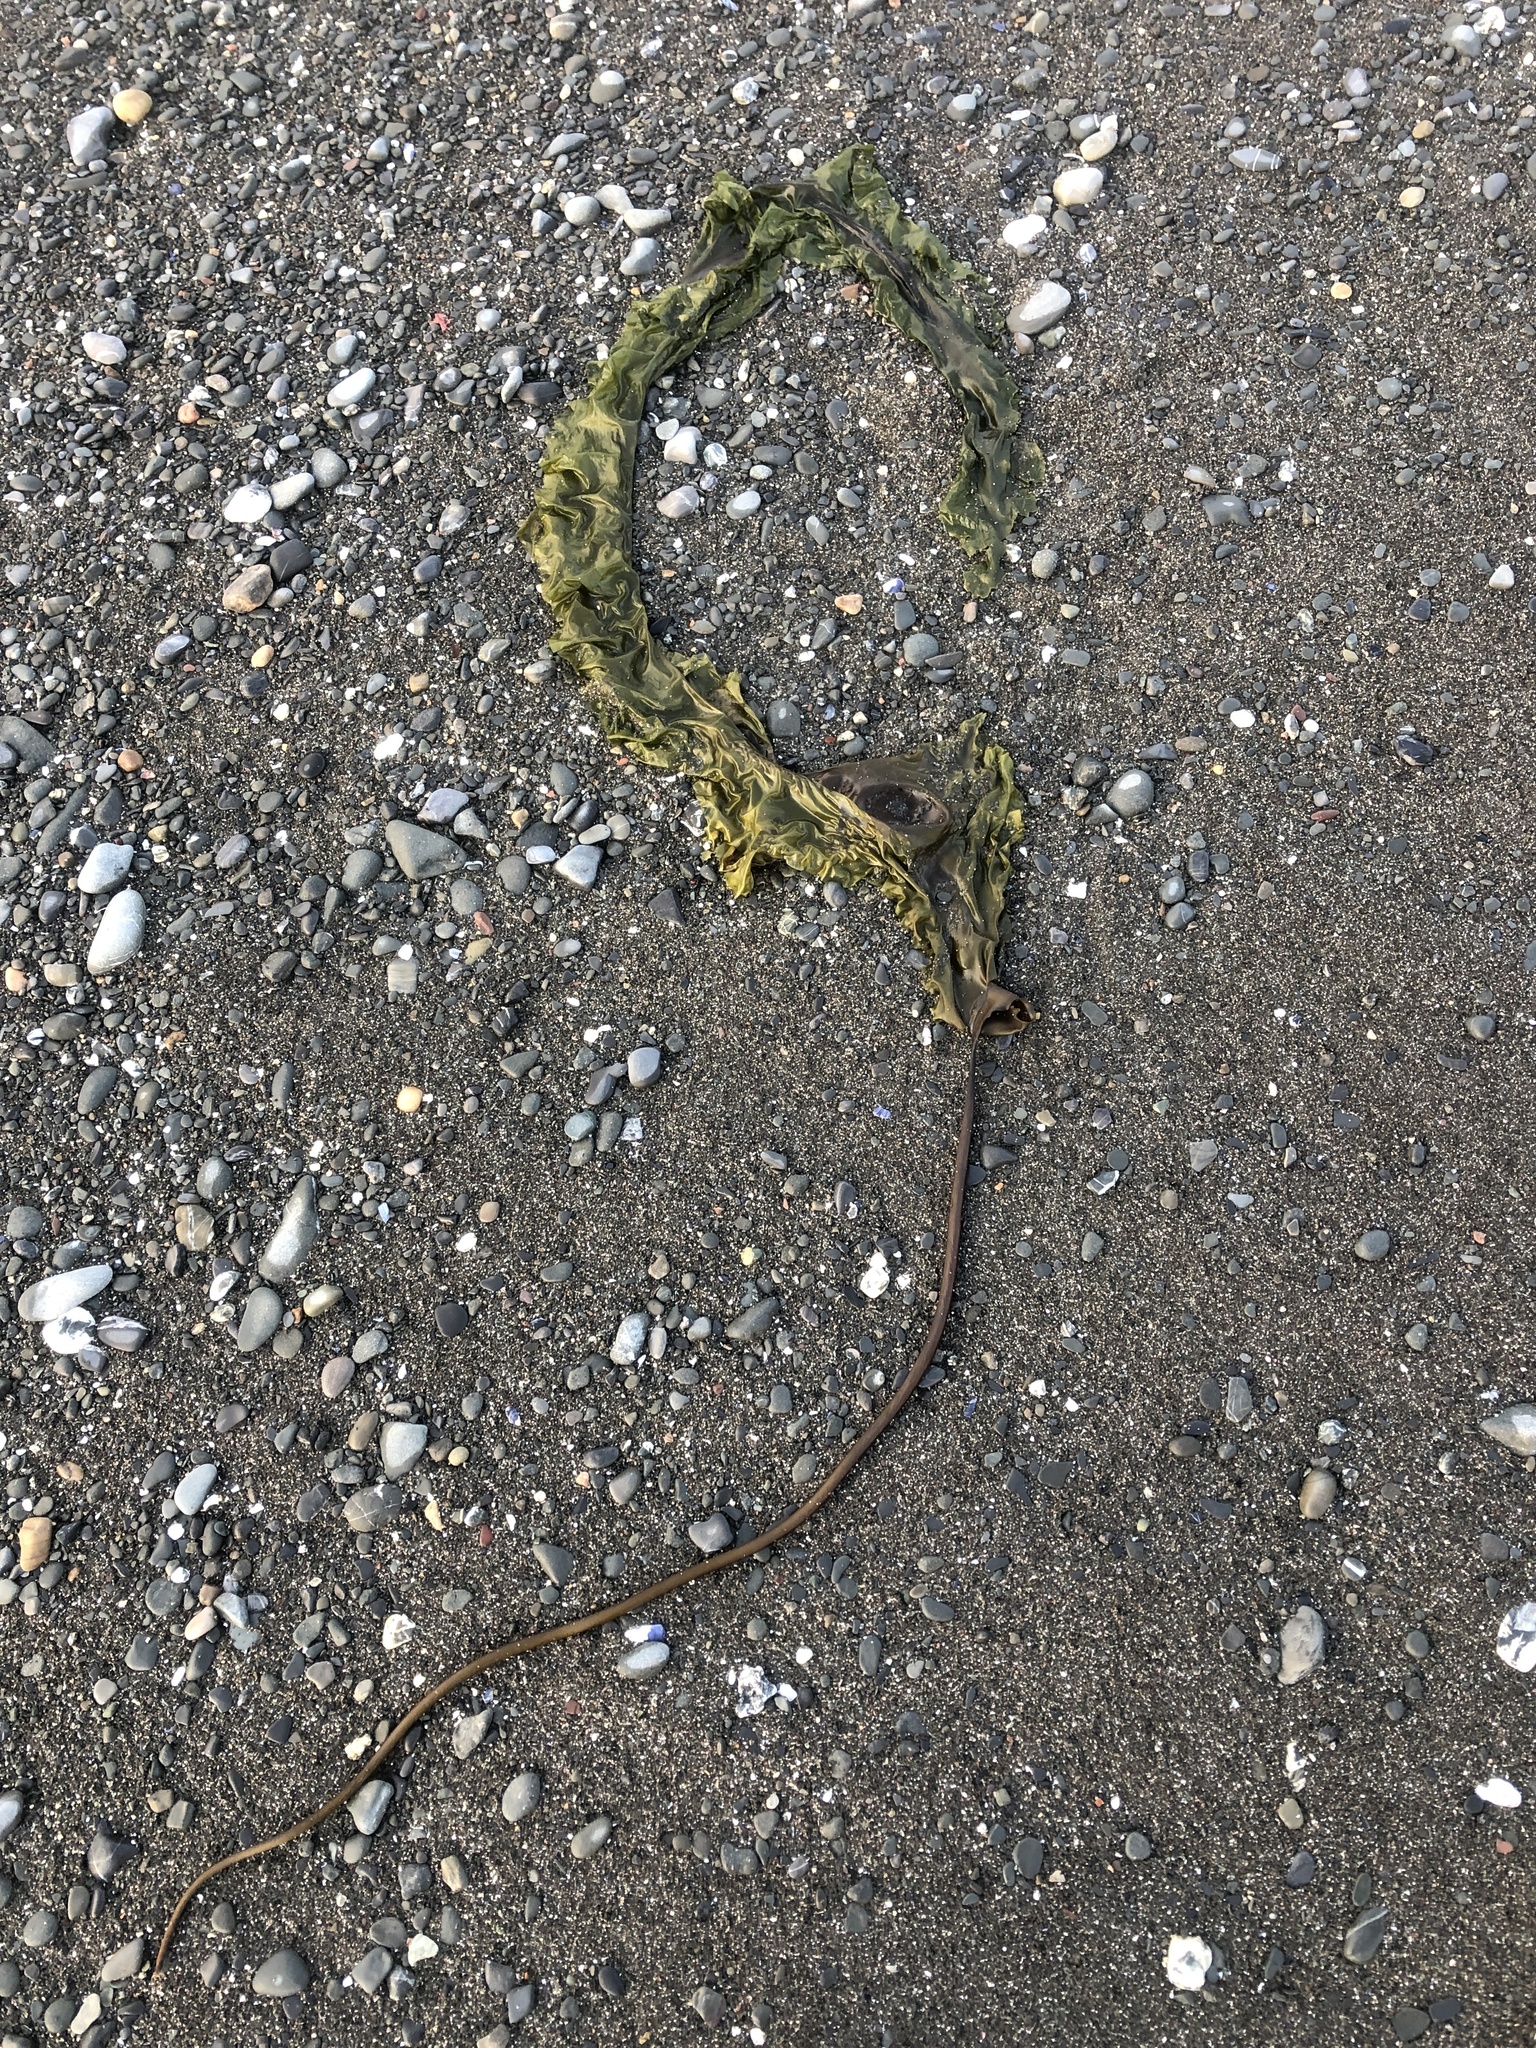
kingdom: Chromista
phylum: Ochrophyta
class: Phaeophyceae
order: Laminariales
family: Laminariaceae
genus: Saccharina
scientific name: Saccharina longicruris
